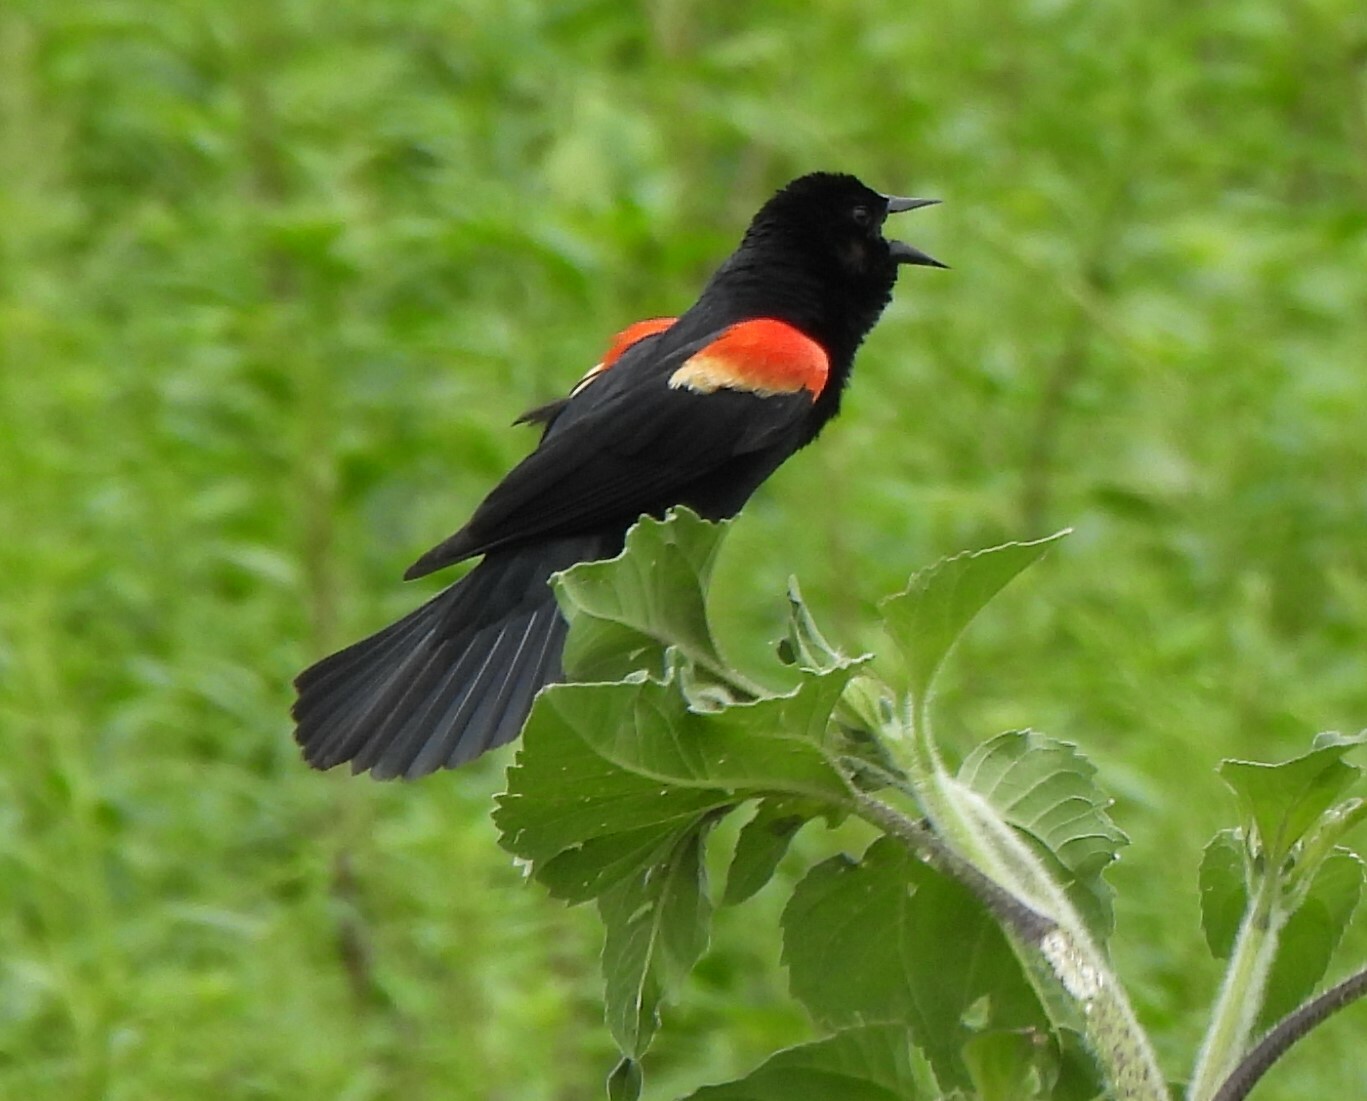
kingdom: Animalia
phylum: Chordata
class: Aves
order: Passeriformes
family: Icteridae
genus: Agelaius
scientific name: Agelaius phoeniceus
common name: Red-winged blackbird
